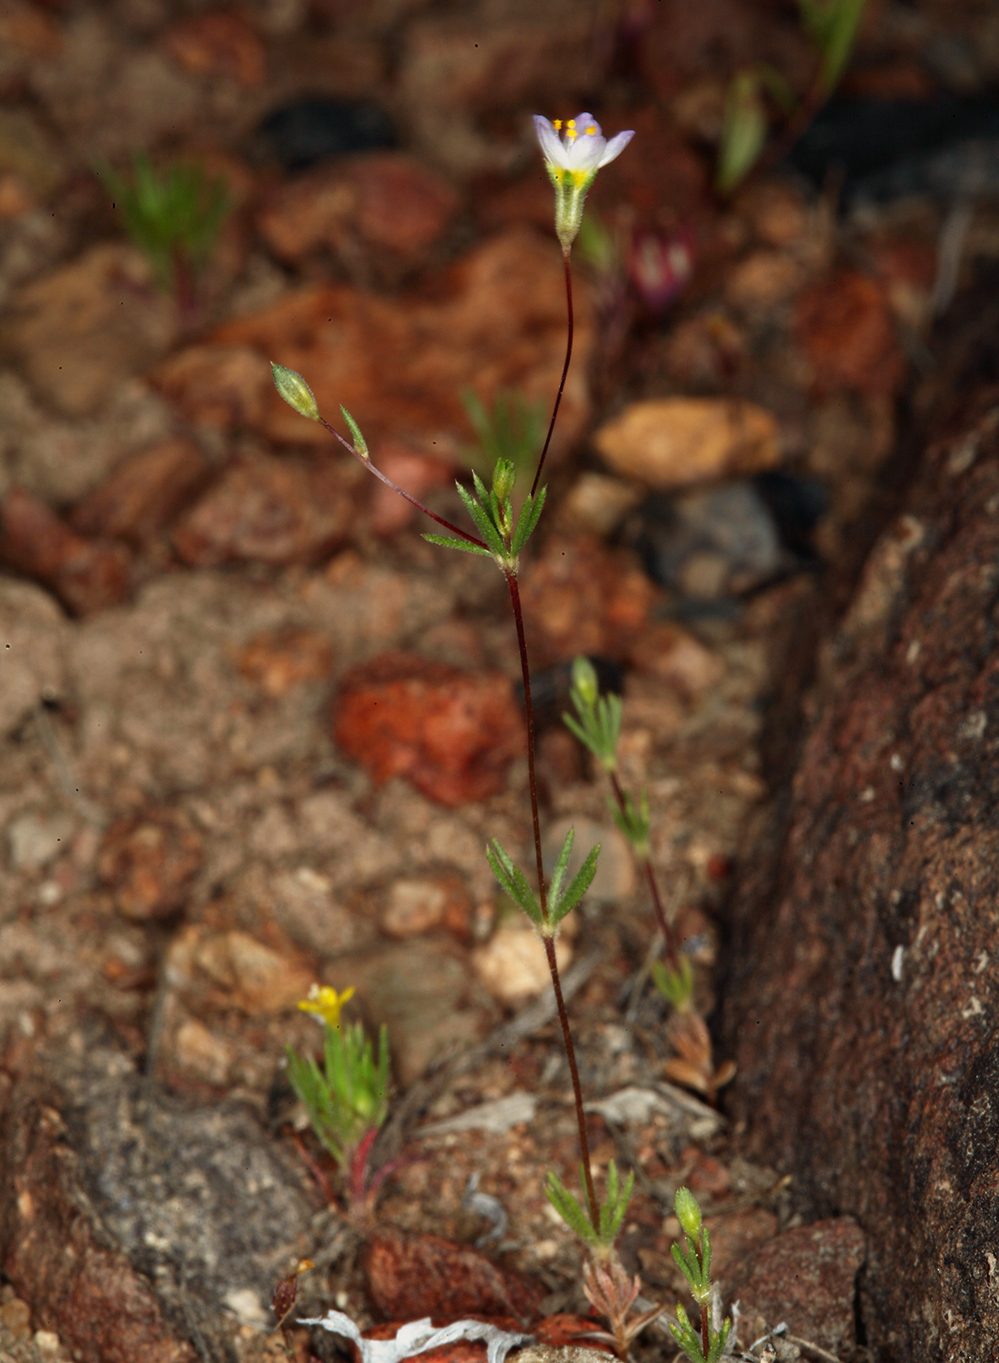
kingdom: Plantae
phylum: Tracheophyta
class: Magnoliopsida
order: Ericales
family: Polemoniaceae
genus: Leptosiphon
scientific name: Leptosiphon septentrionalis
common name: Northern linanthus
